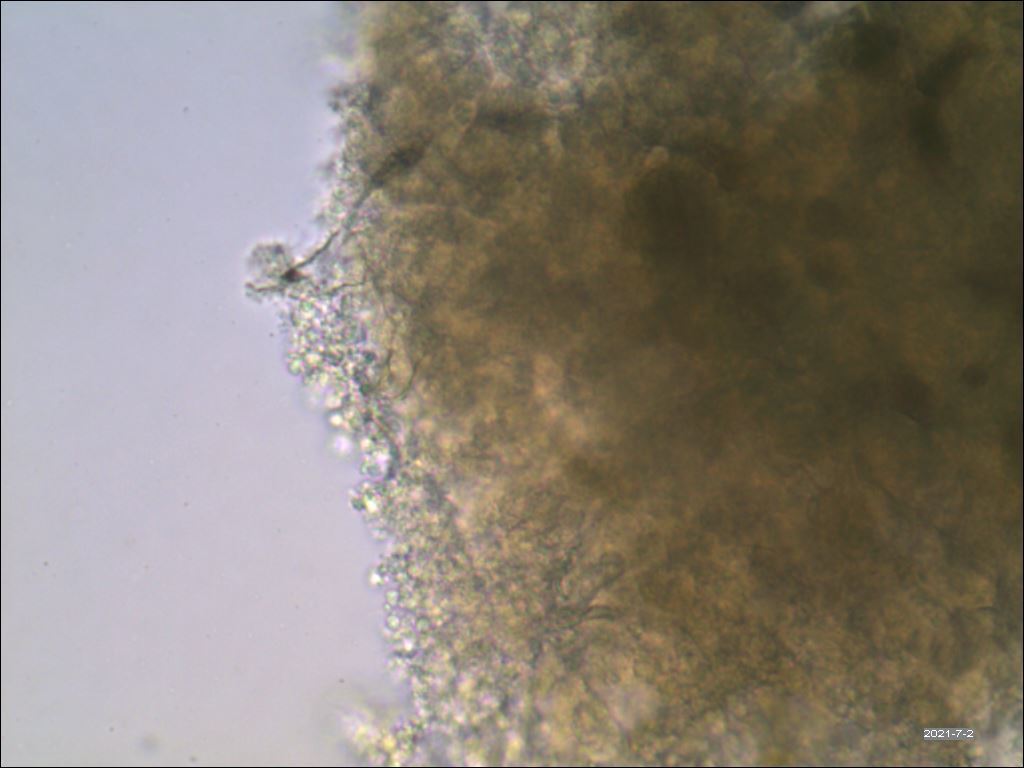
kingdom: Protozoa
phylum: Mycetozoa
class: Myxomycetes
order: Physarales
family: Physaraceae
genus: Physarum
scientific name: Physarum polycephalum
